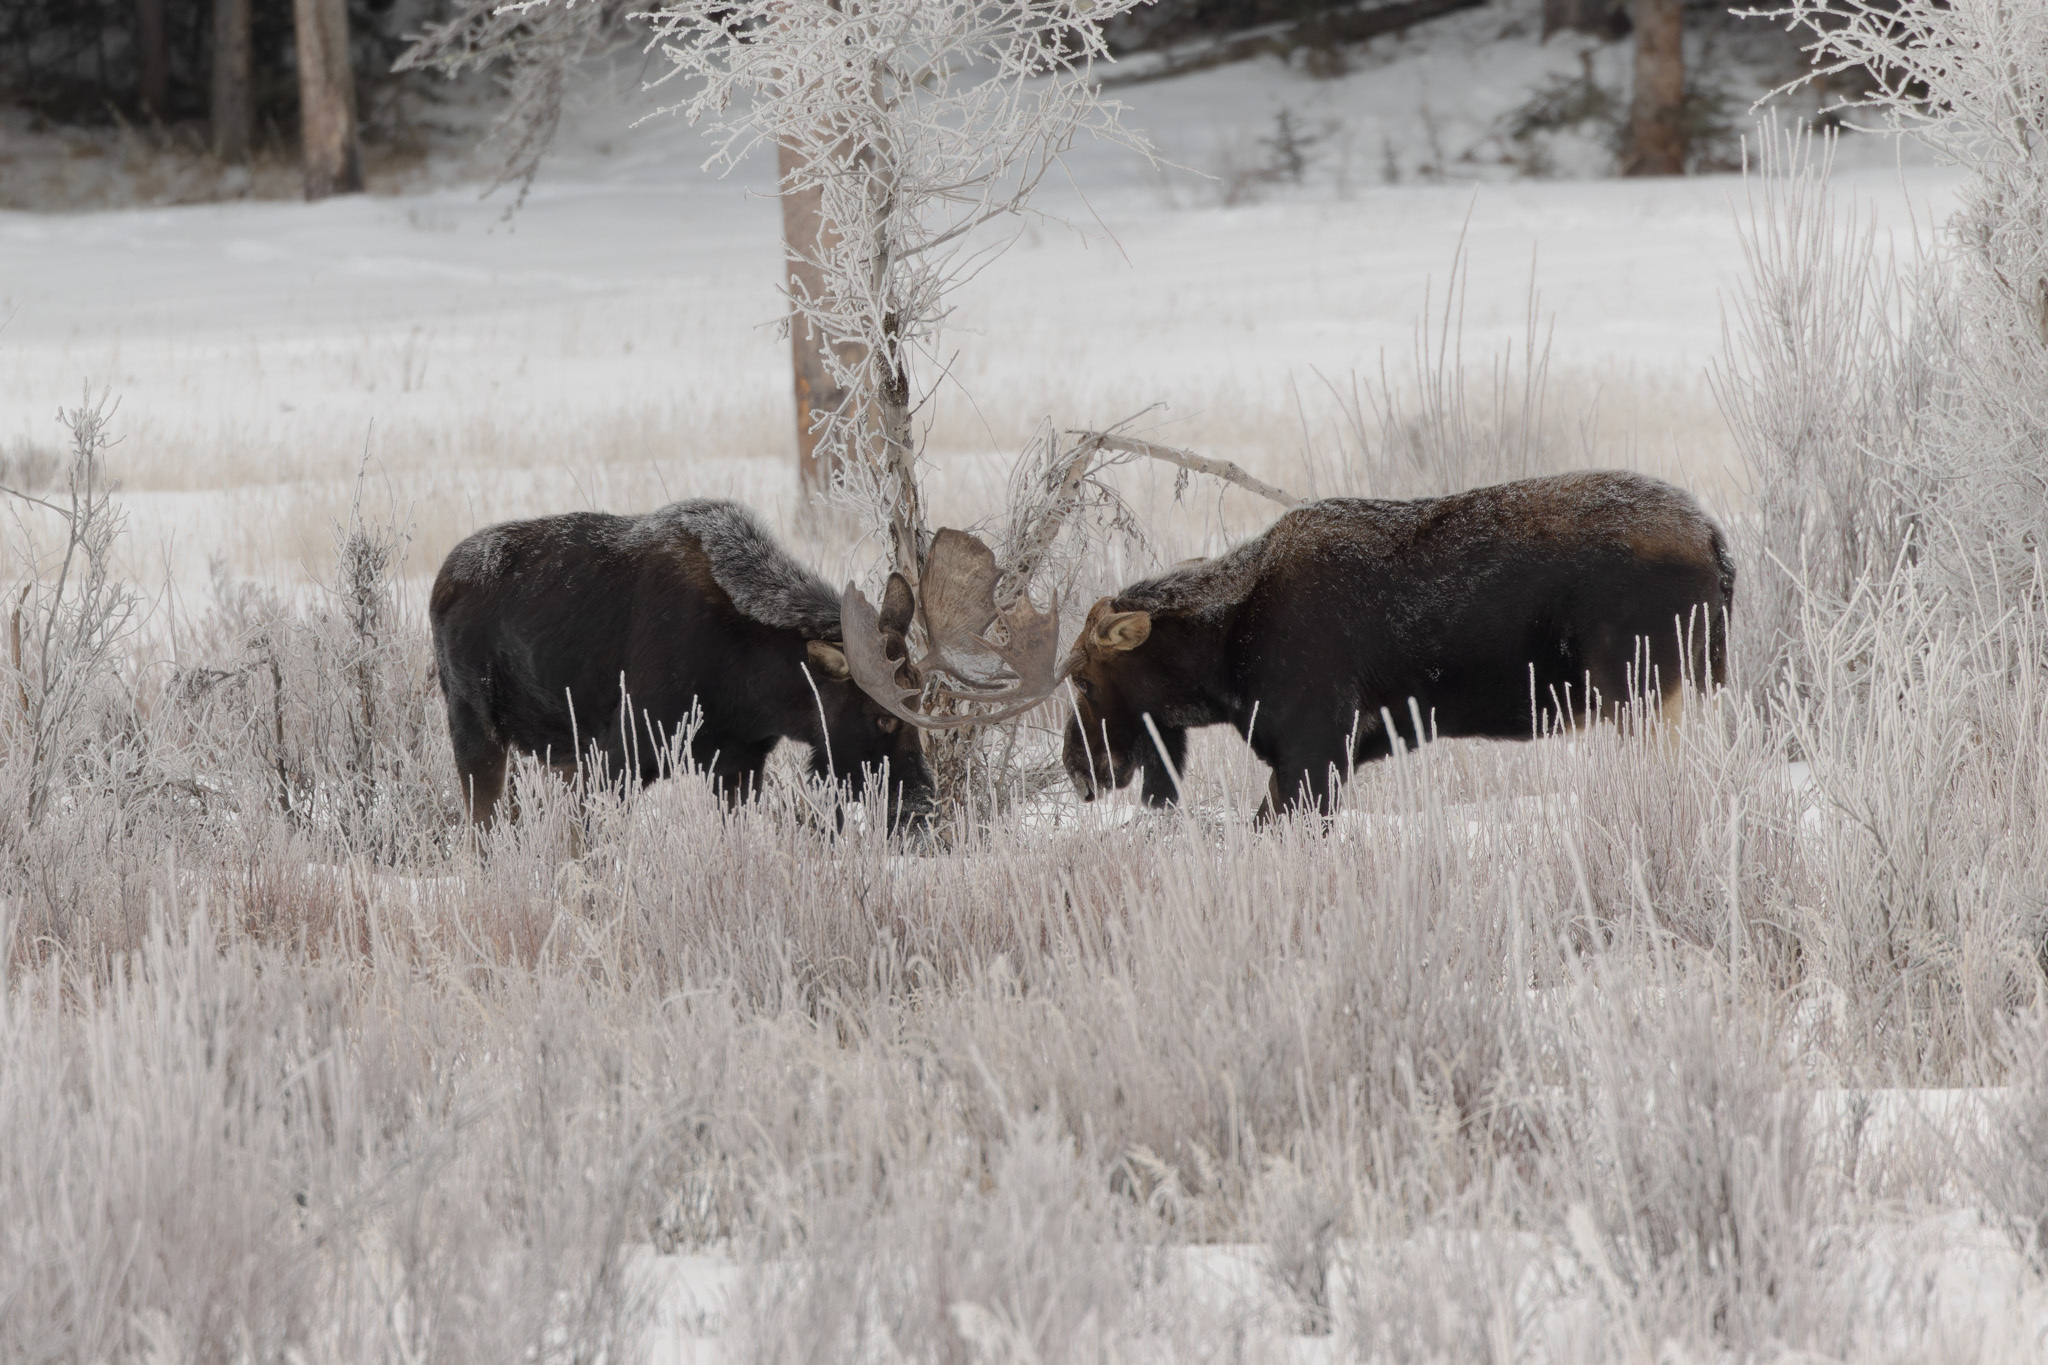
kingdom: Animalia
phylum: Chordata
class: Mammalia
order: Artiodactyla
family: Cervidae
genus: Alces
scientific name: Alces alces
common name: Moose
